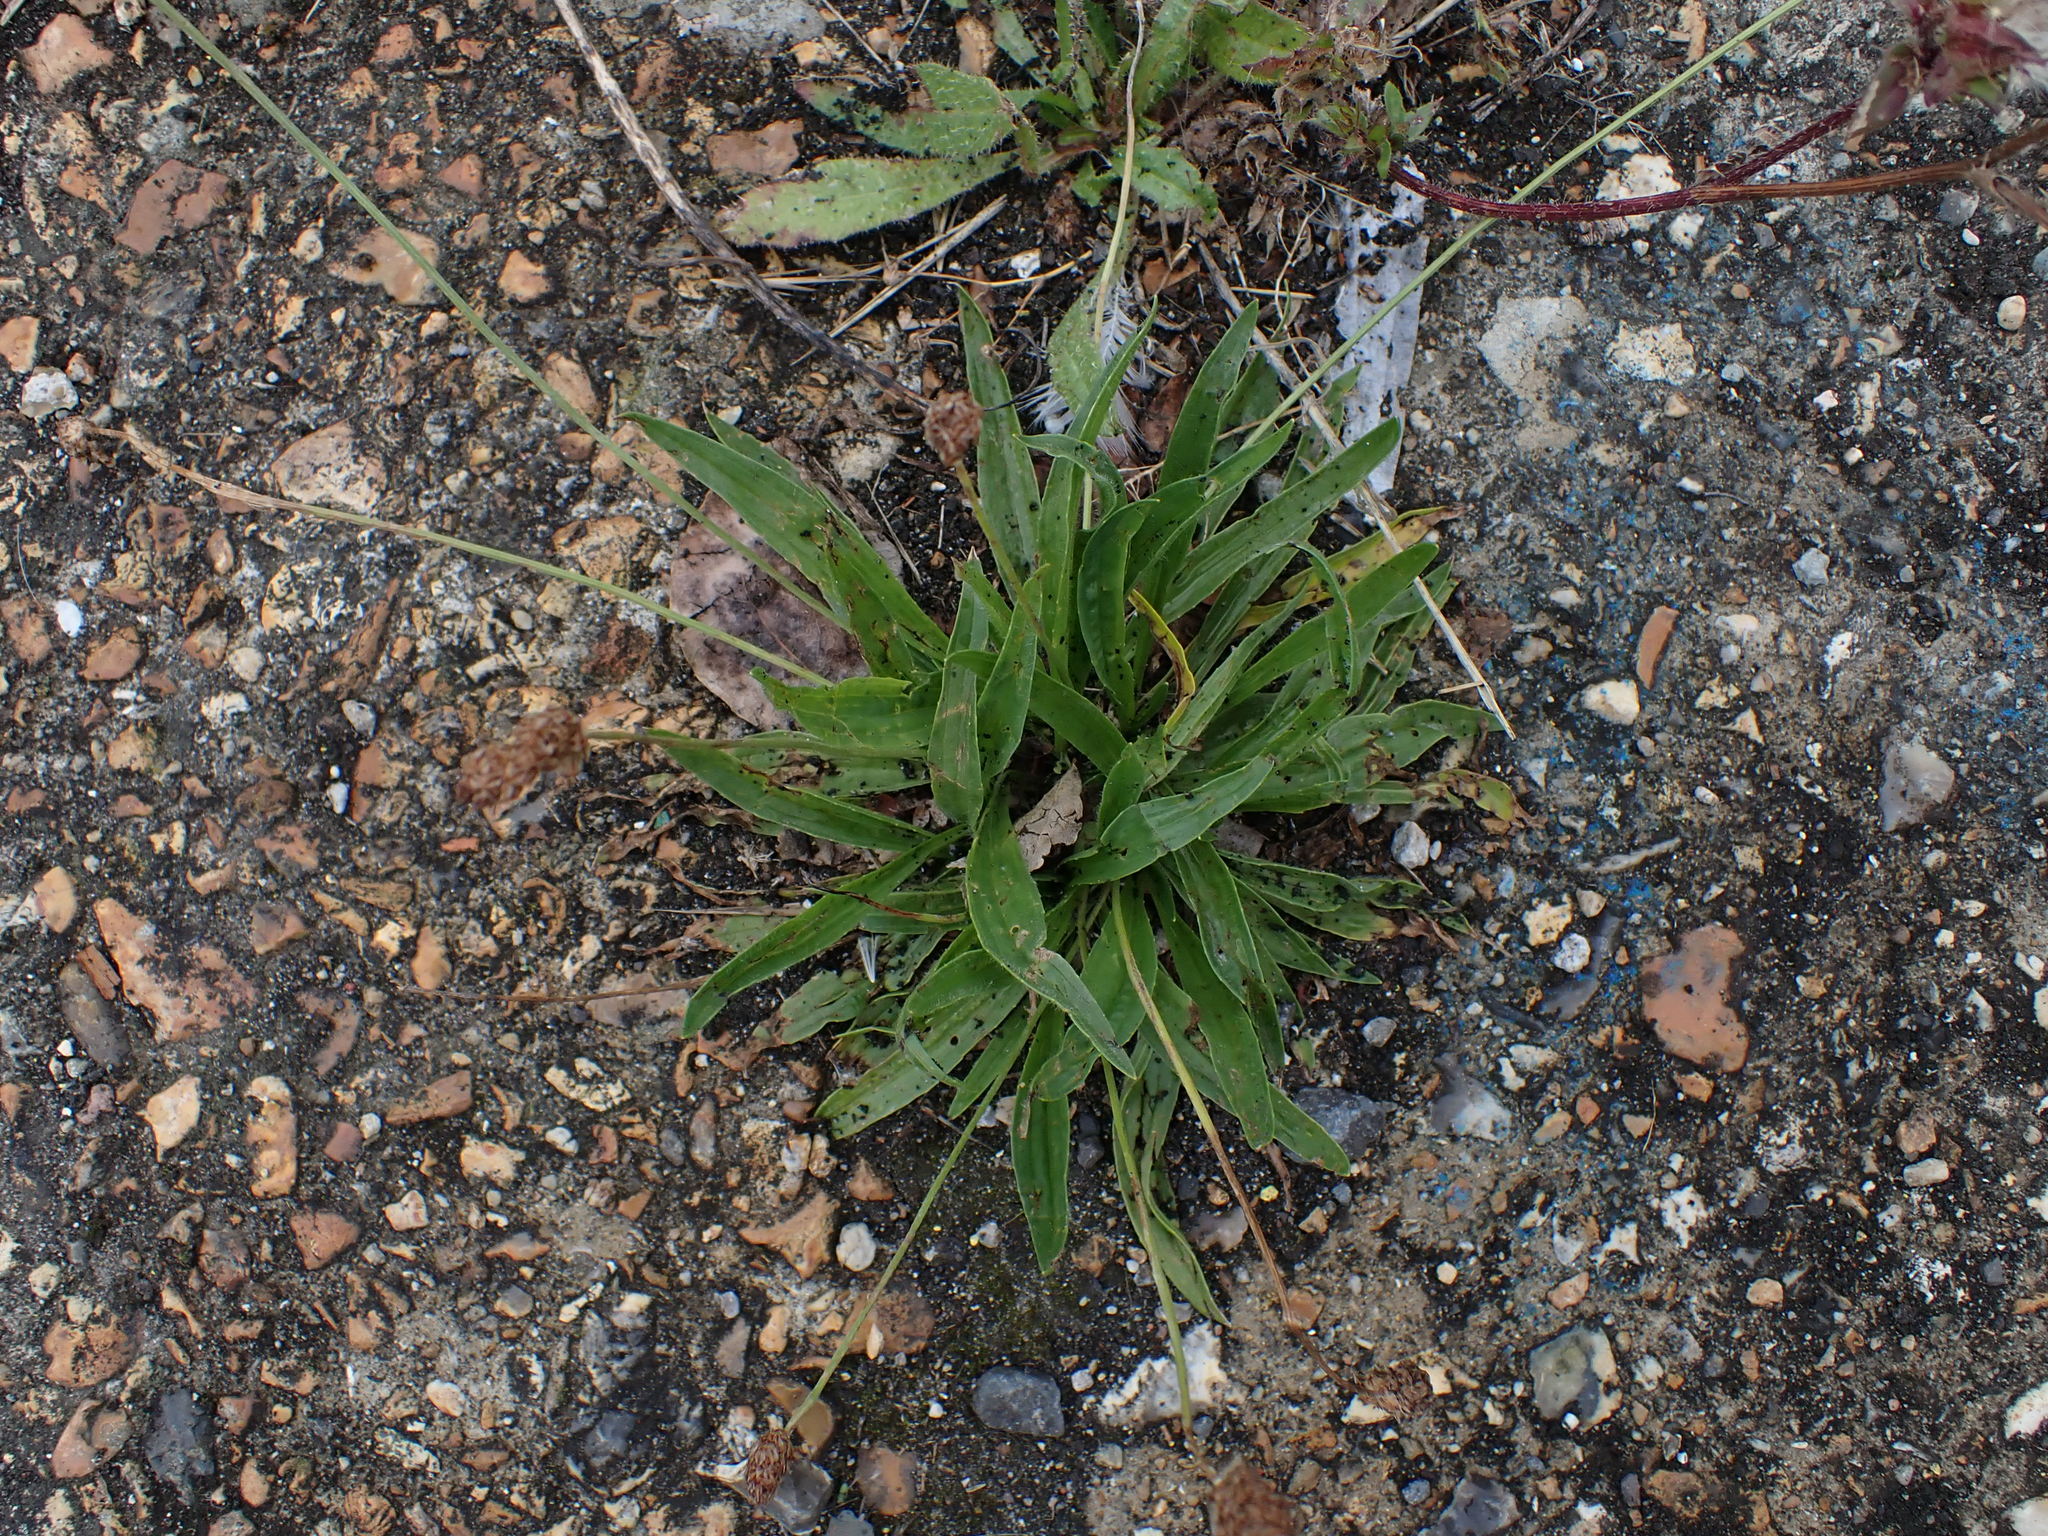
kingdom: Plantae
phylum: Tracheophyta
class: Magnoliopsida
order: Lamiales
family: Plantaginaceae
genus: Plantago
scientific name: Plantago lanceolata
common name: Ribwort plantain
